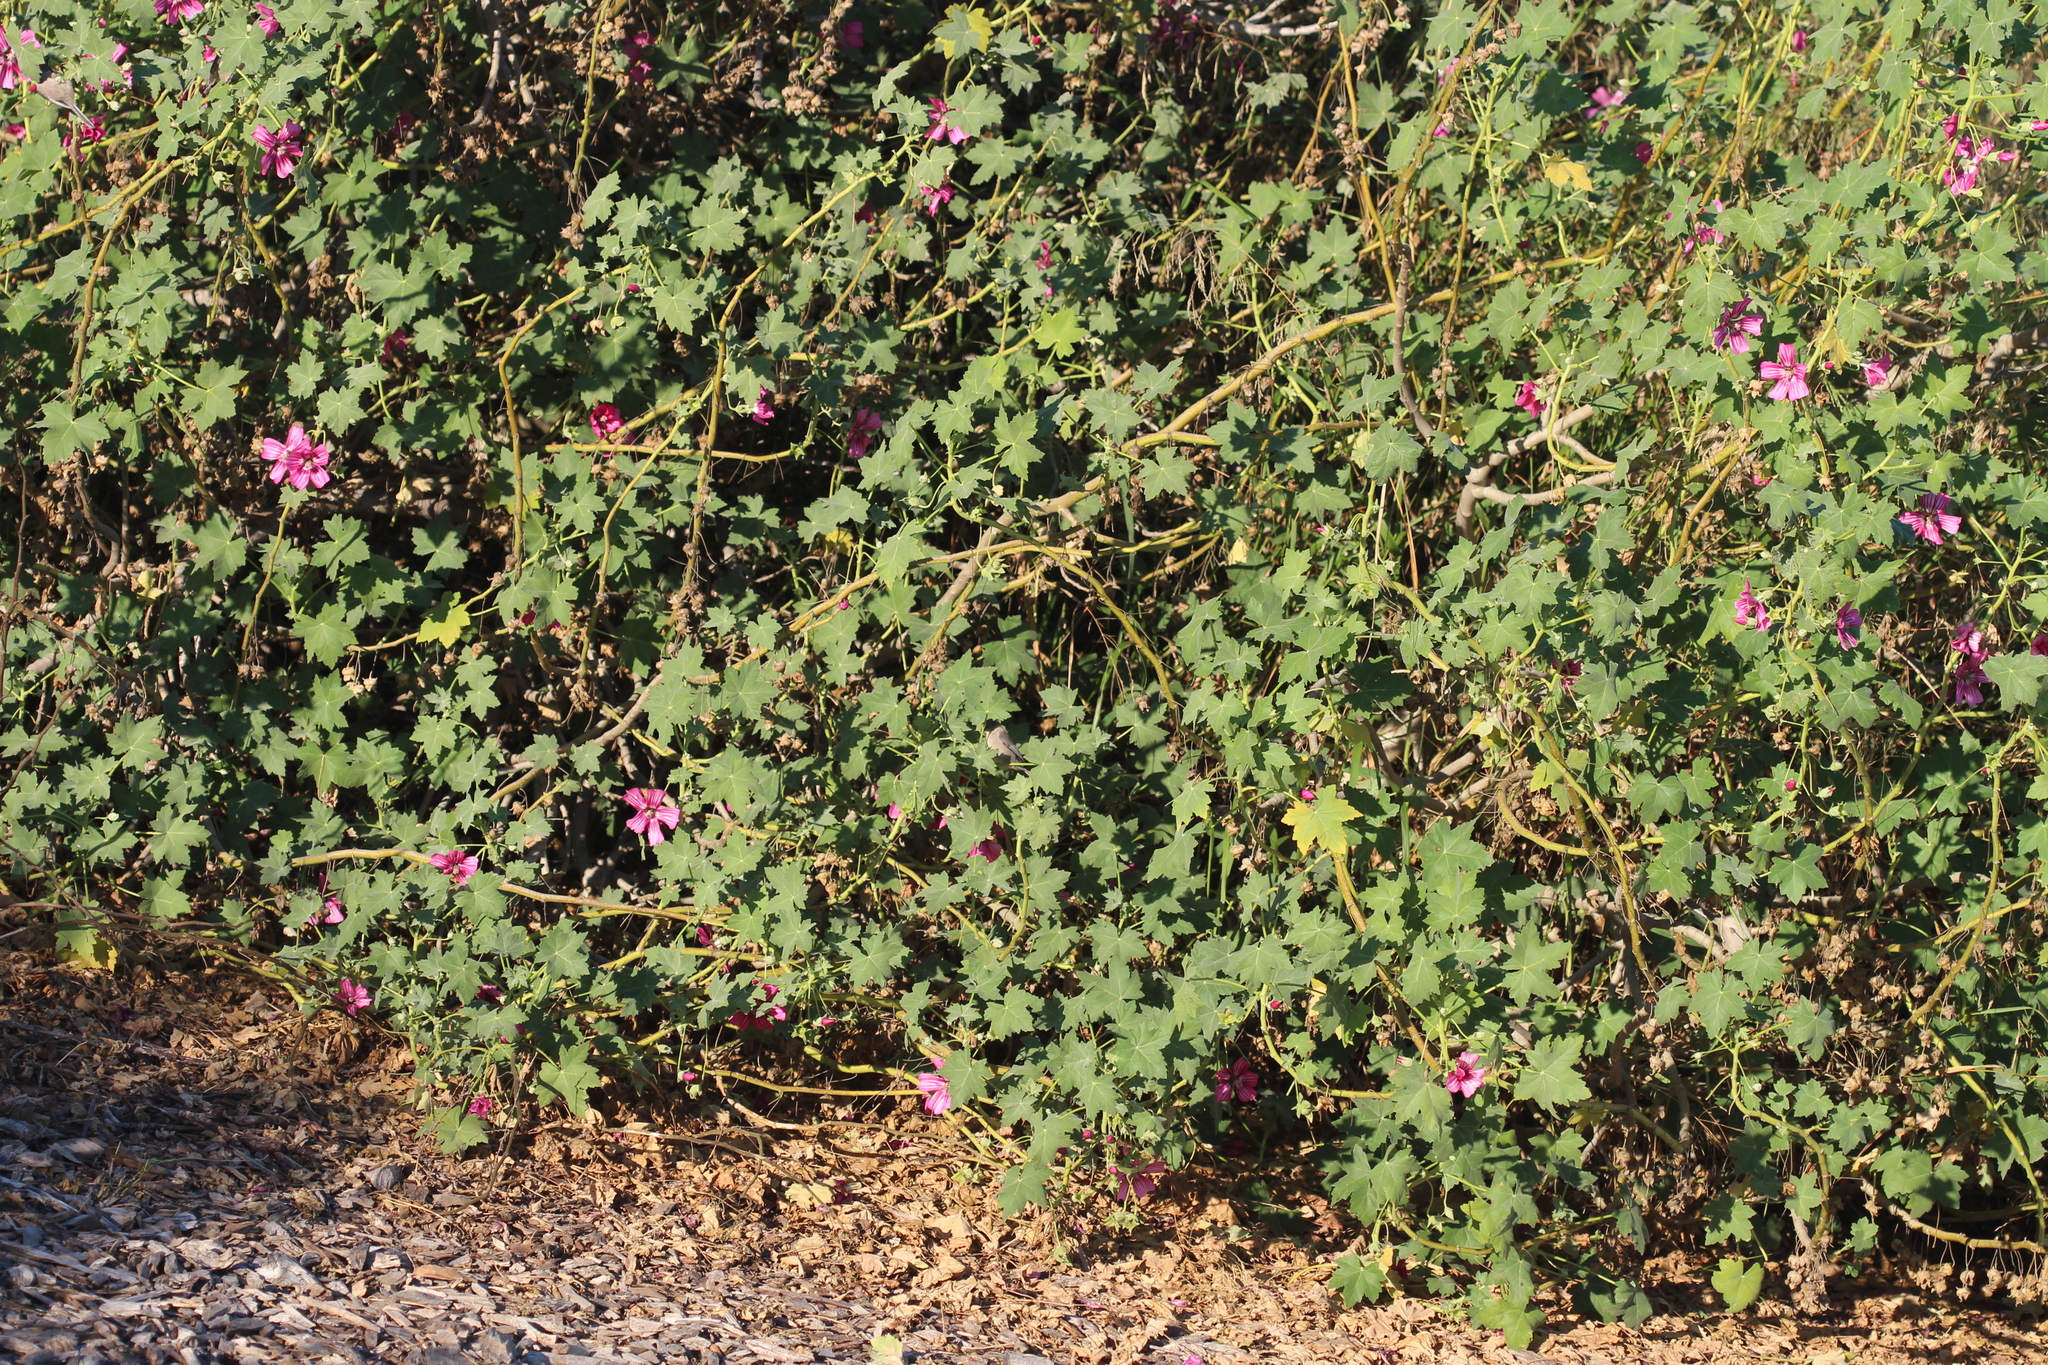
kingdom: Plantae
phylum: Tracheophyta
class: Magnoliopsida
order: Malvales
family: Malvaceae
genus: Malva
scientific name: Malva assurgentiflora
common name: Island mallow
